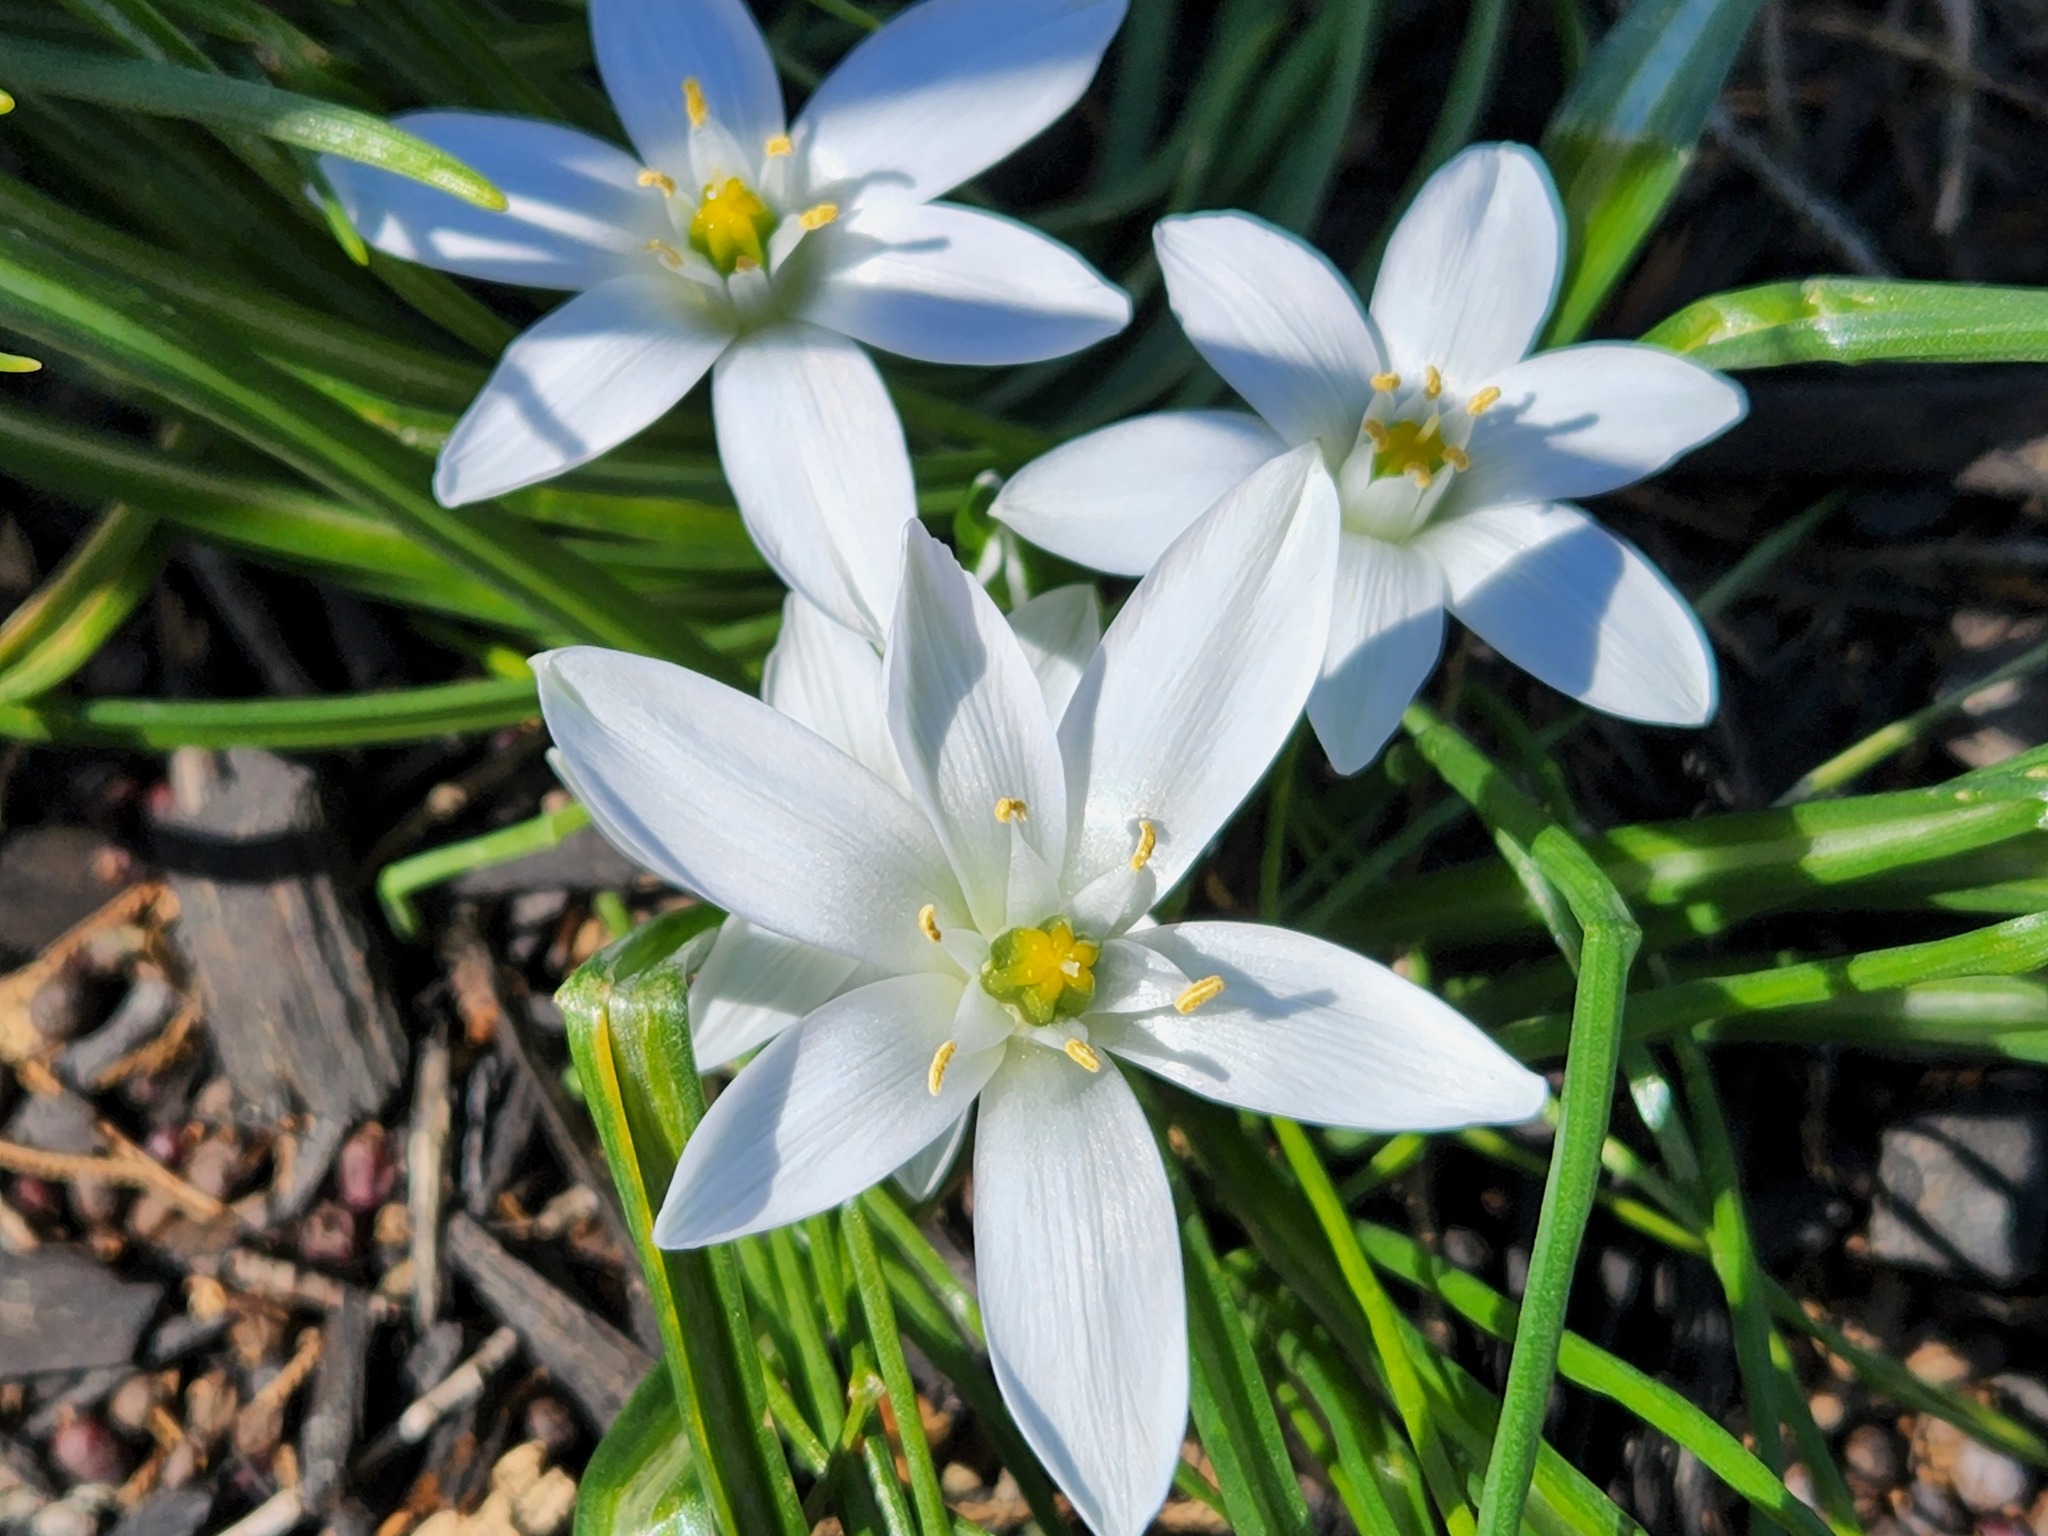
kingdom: Plantae
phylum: Tracheophyta
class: Liliopsida
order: Asparagales
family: Asparagaceae
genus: Ornithogalum
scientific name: Ornithogalum umbellatum
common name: Garden star-of-bethlehem
